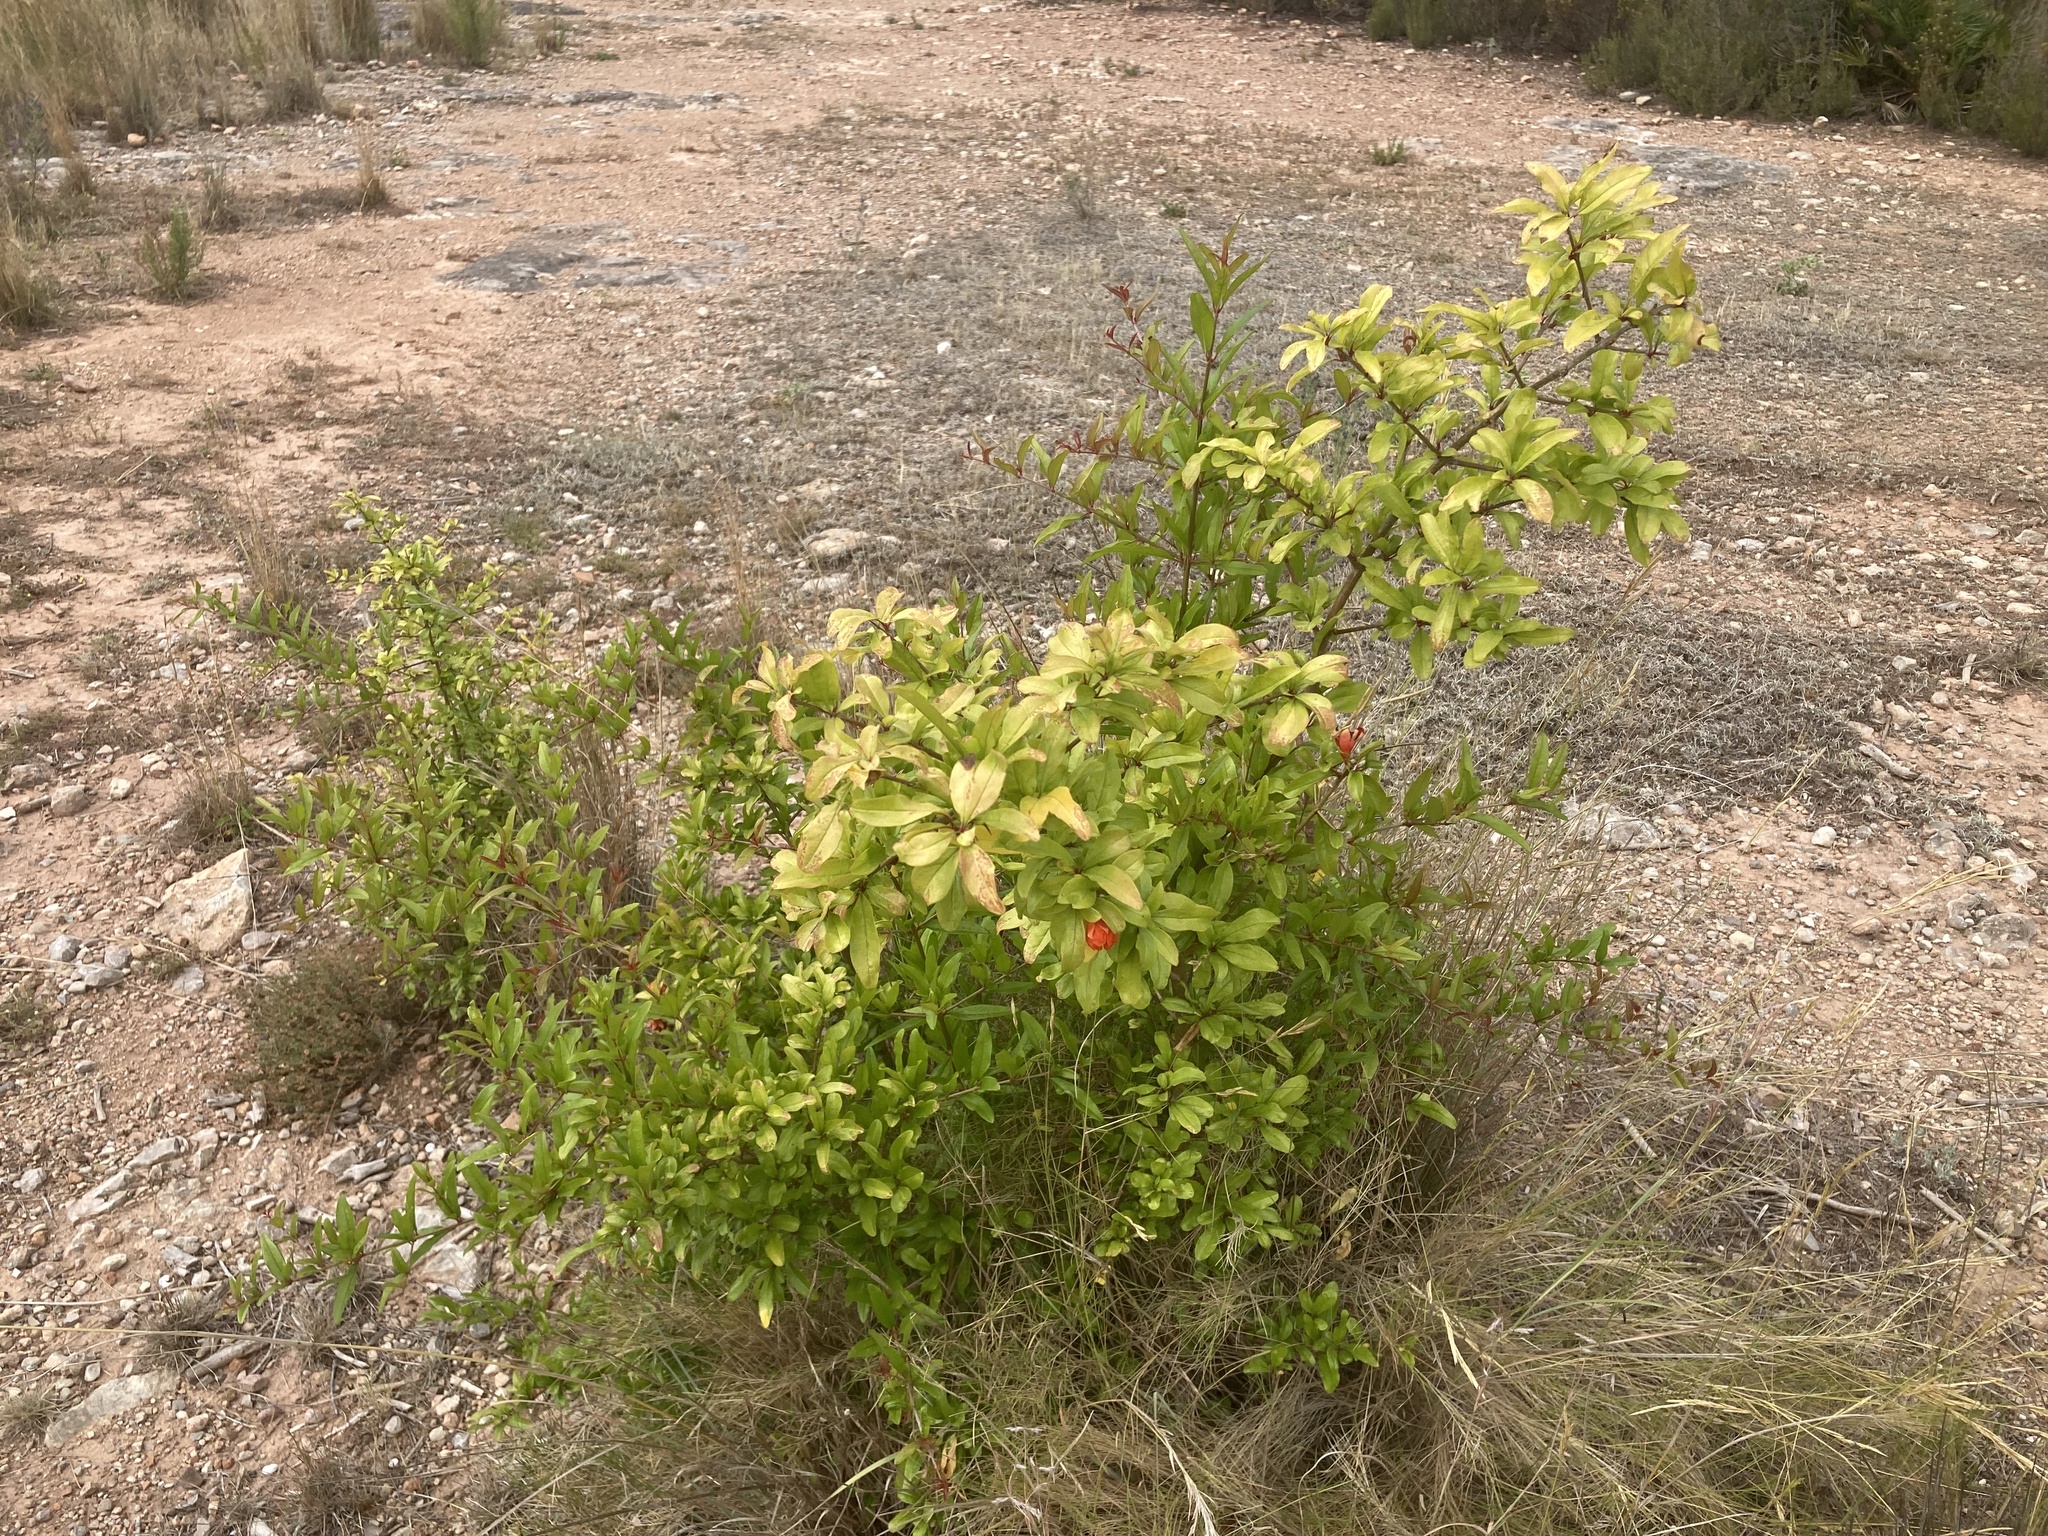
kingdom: Plantae
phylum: Tracheophyta
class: Magnoliopsida
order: Myrtales
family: Lythraceae
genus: Punica
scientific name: Punica granatum
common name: Pomegranate
